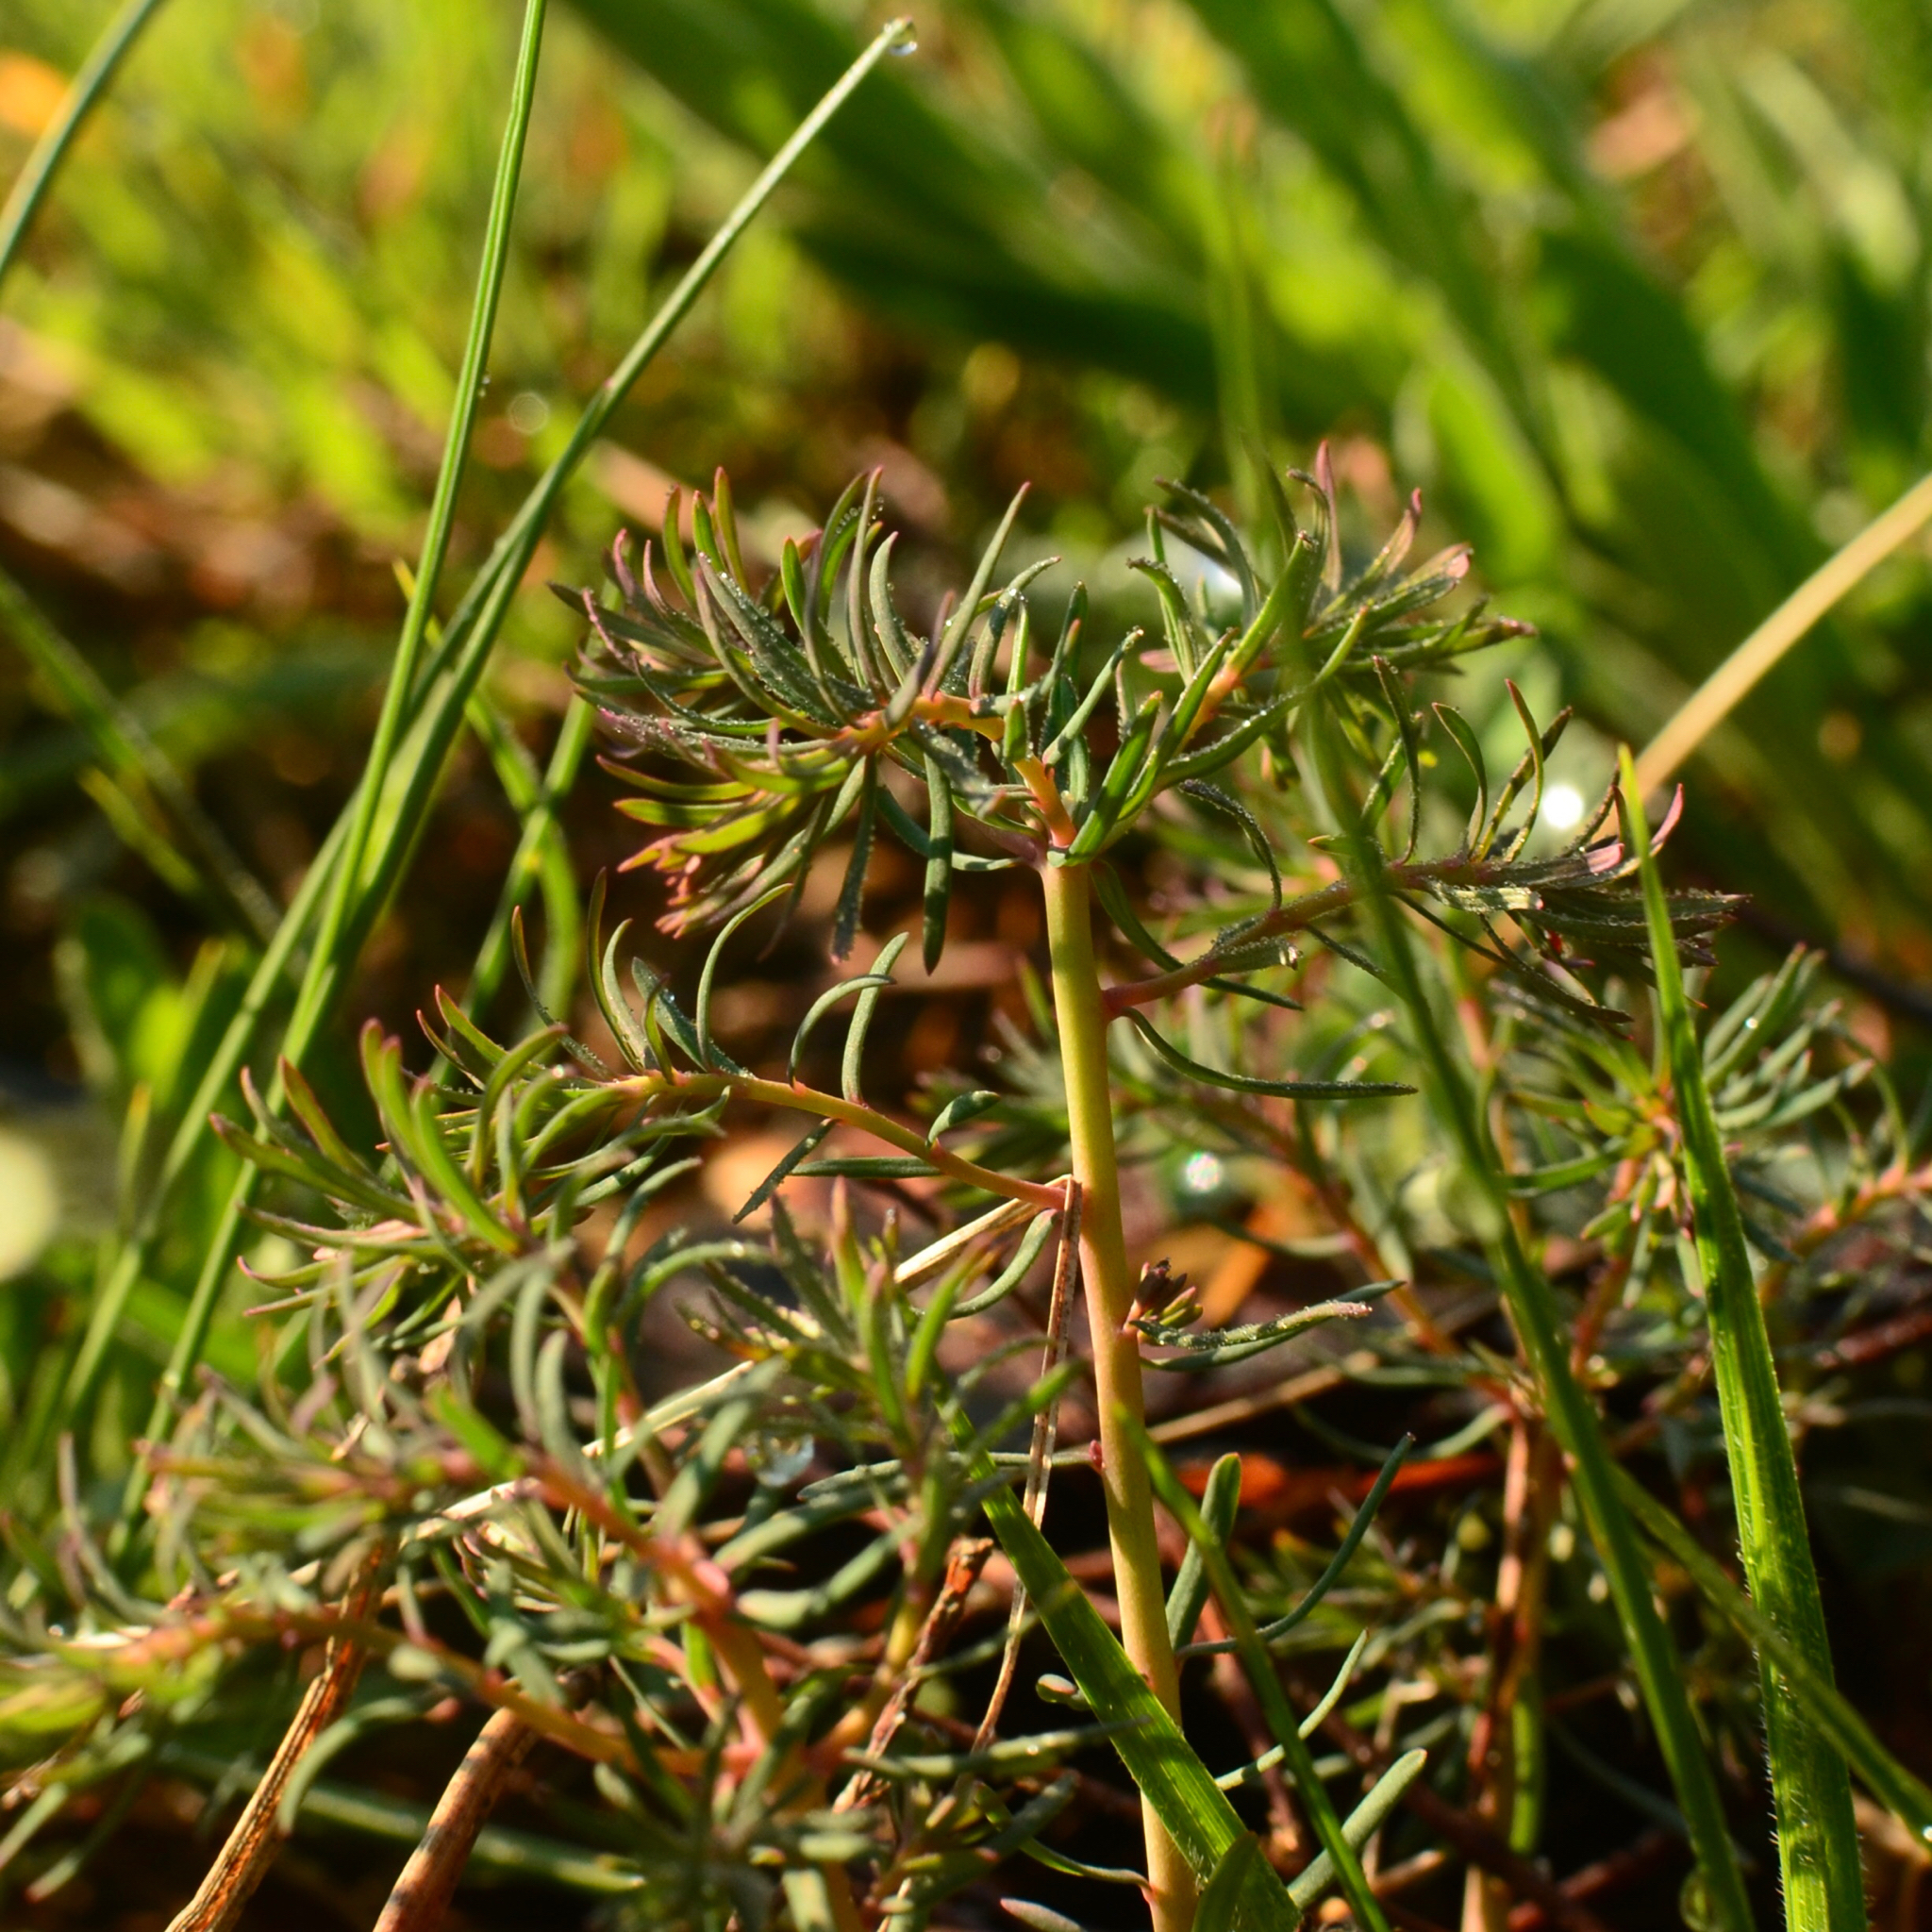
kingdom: Plantae
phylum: Tracheophyta
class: Magnoliopsida
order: Malpighiales
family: Euphorbiaceae
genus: Euphorbia
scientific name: Euphorbia cyparissias
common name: Cypress spurge
